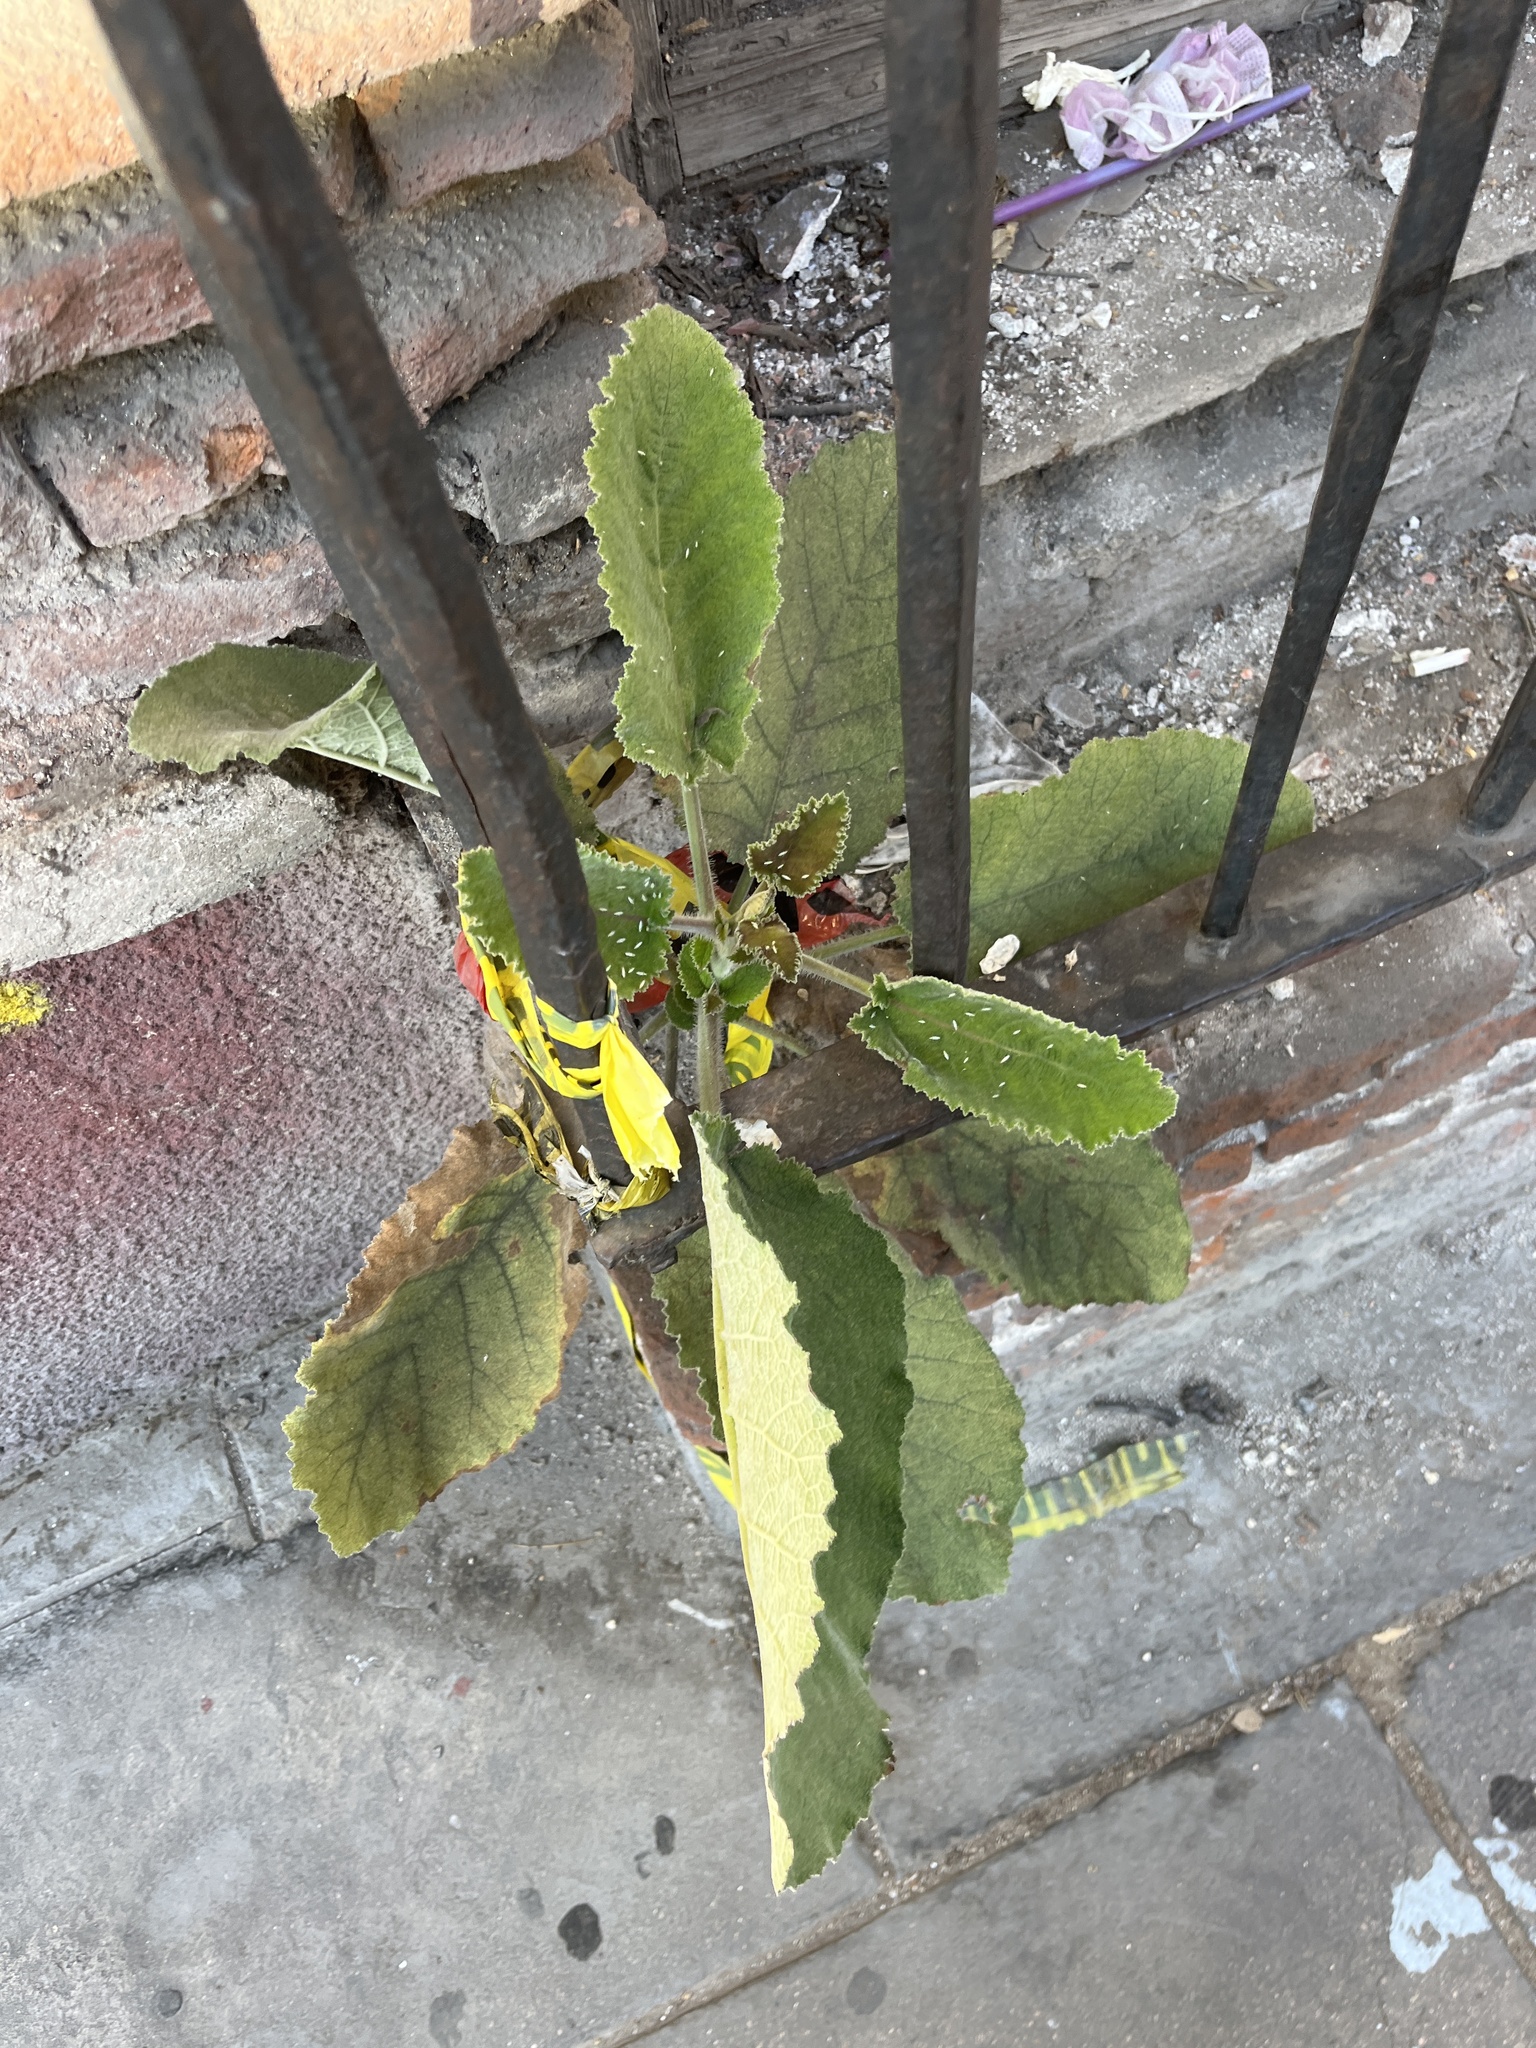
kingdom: Plantae
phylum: Tracheophyta
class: Magnoliopsida
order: Boraginales
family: Namaceae
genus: Wigandia
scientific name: Wigandia urens
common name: Caracus wigandia
